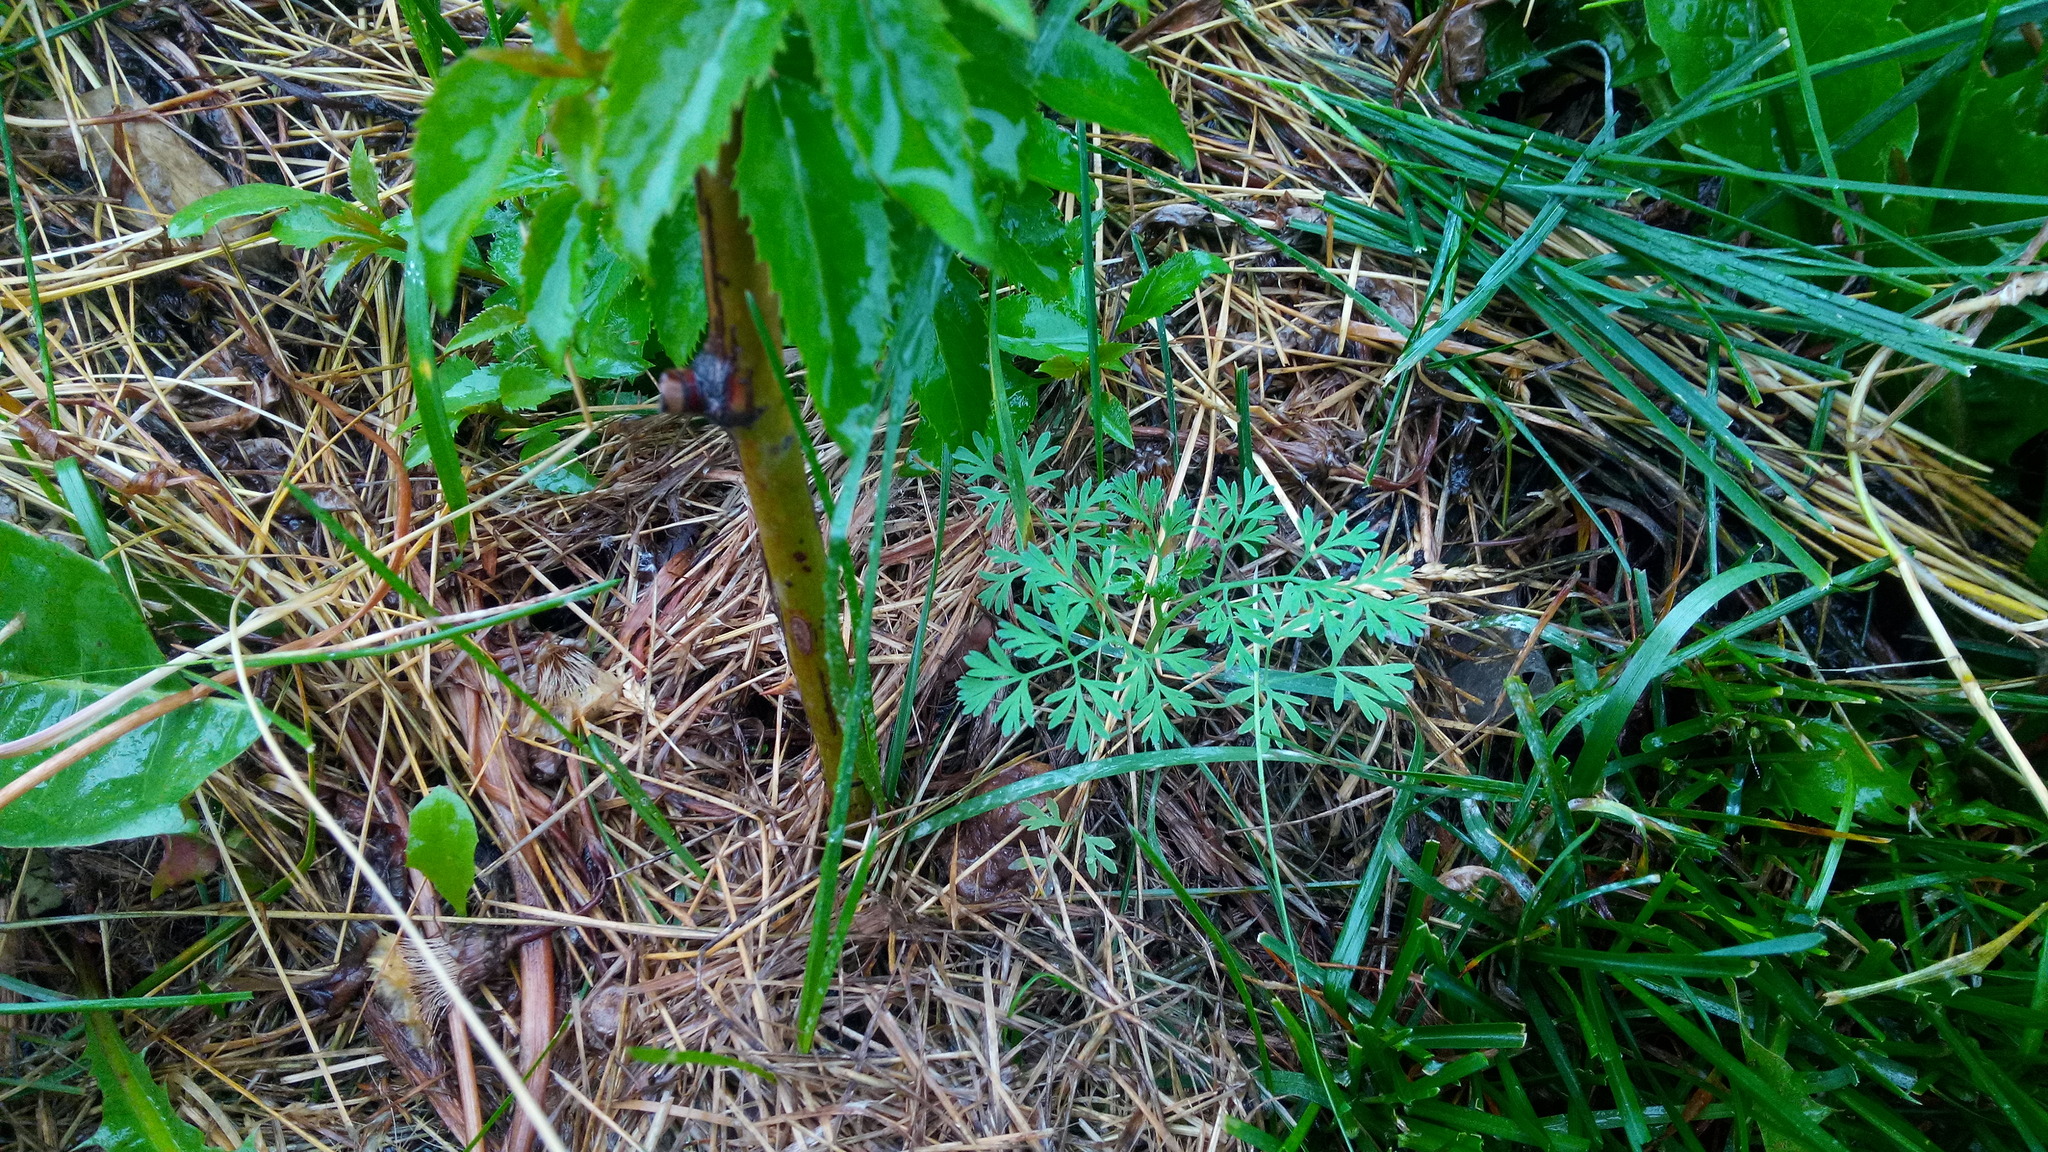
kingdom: Plantae
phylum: Tracheophyta
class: Magnoliopsida
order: Ranunculales
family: Papaveraceae
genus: Fumaria
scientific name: Fumaria officinalis
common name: Common fumitory
